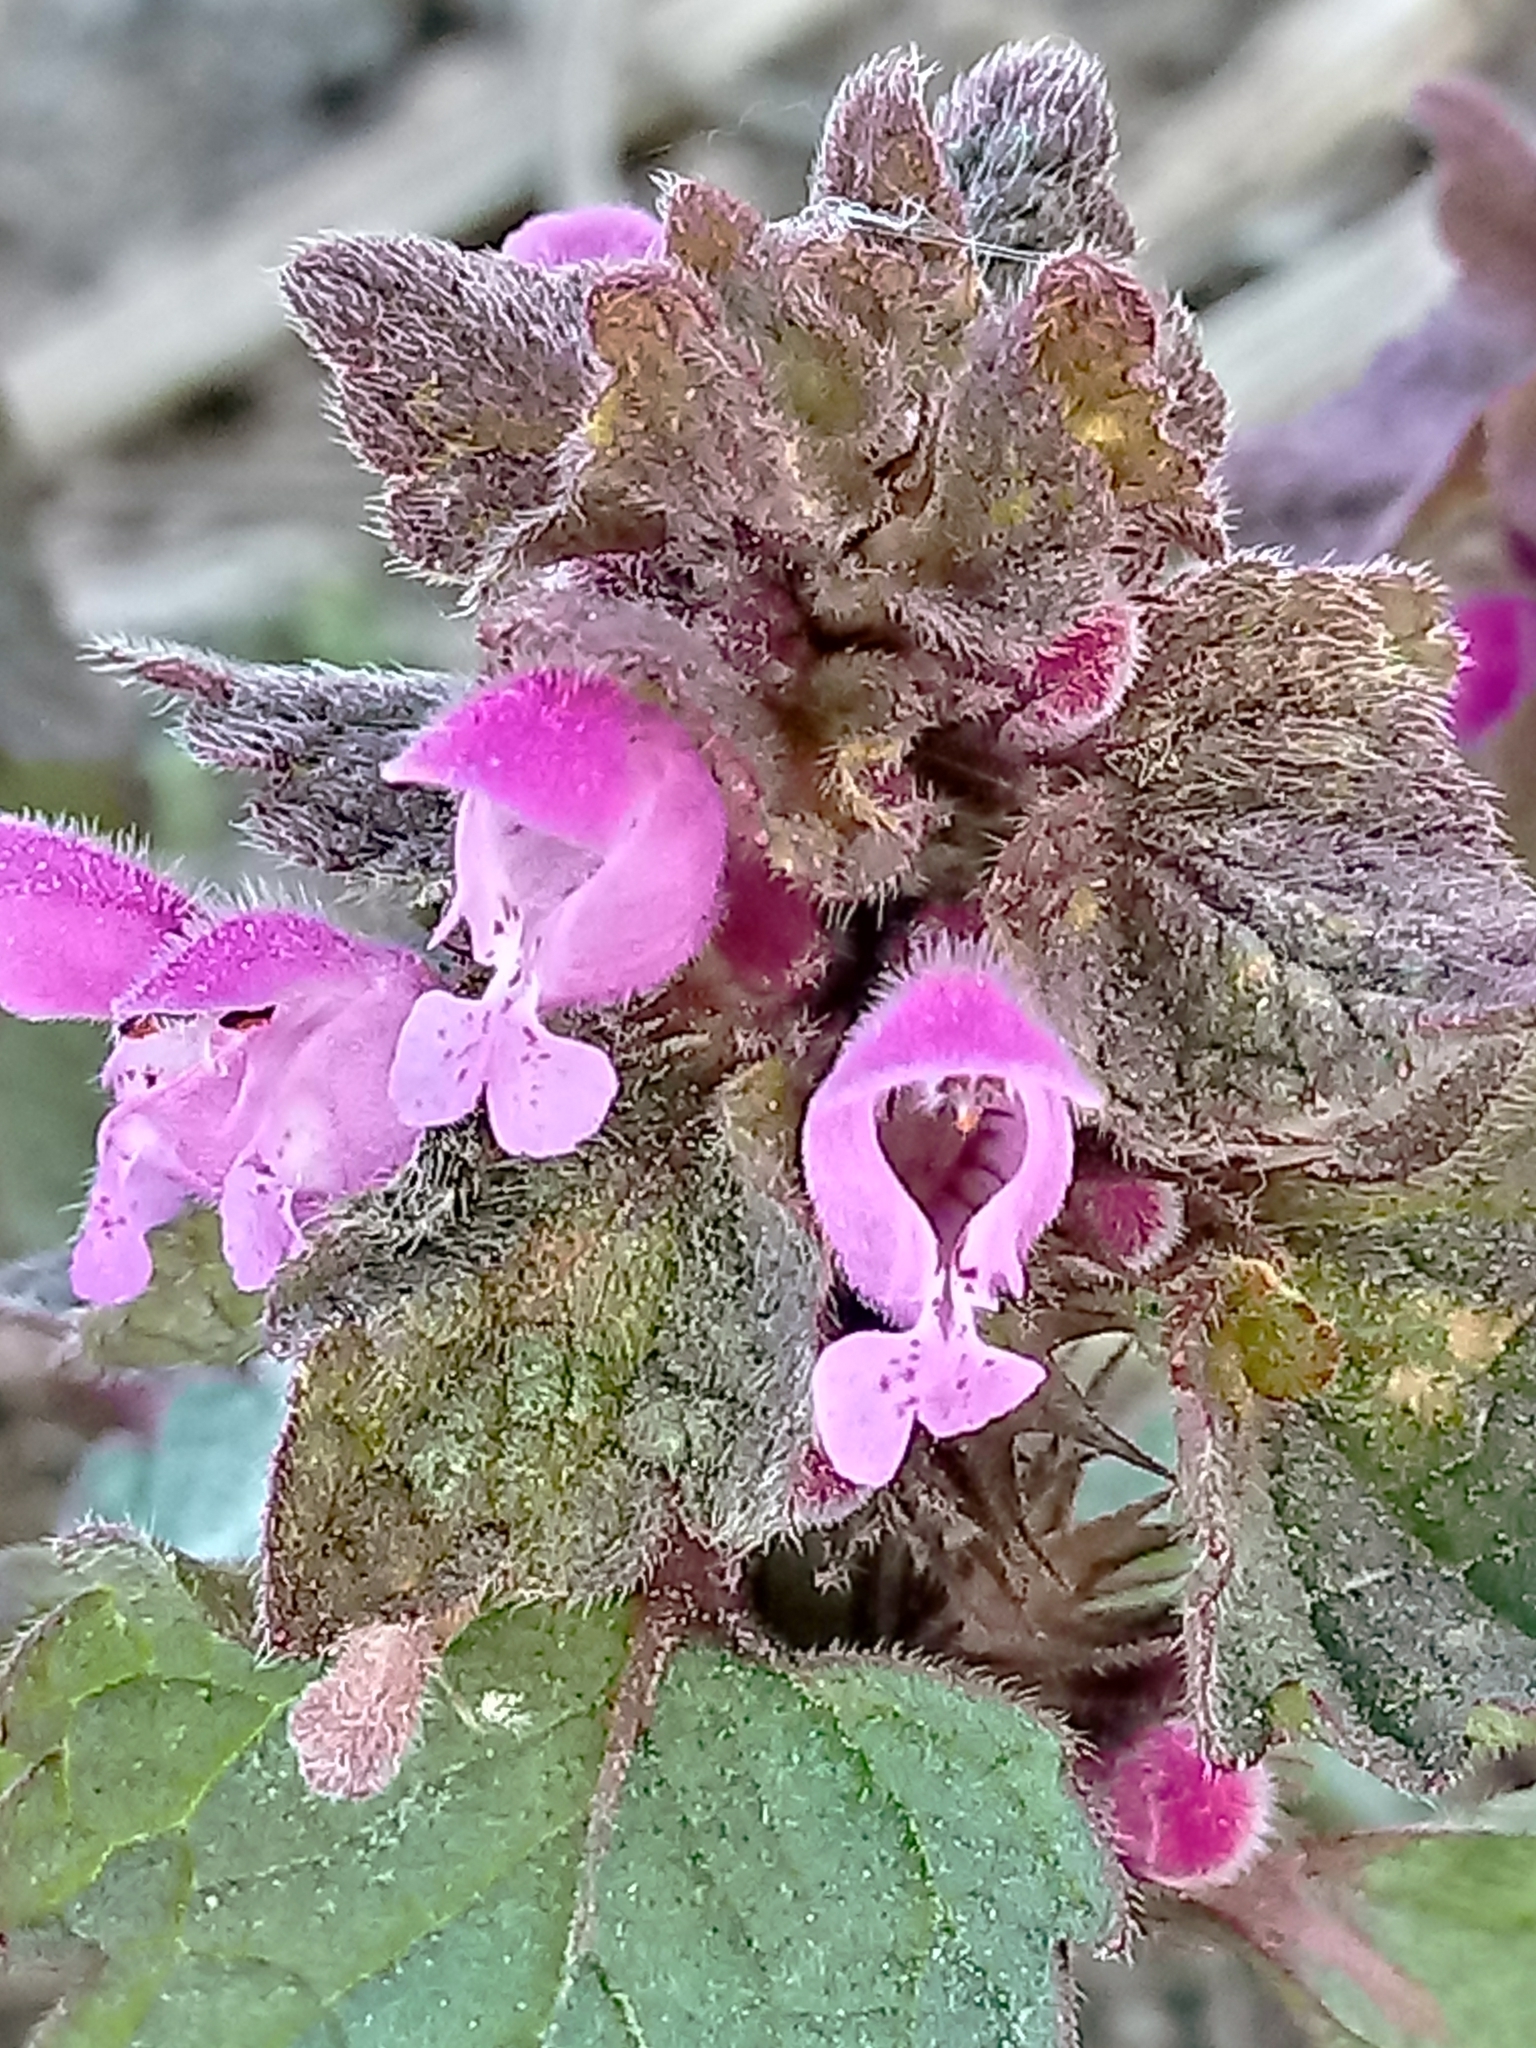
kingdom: Plantae
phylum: Tracheophyta
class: Magnoliopsida
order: Lamiales
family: Lamiaceae
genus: Lamium
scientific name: Lamium purpureum
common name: Red dead-nettle
